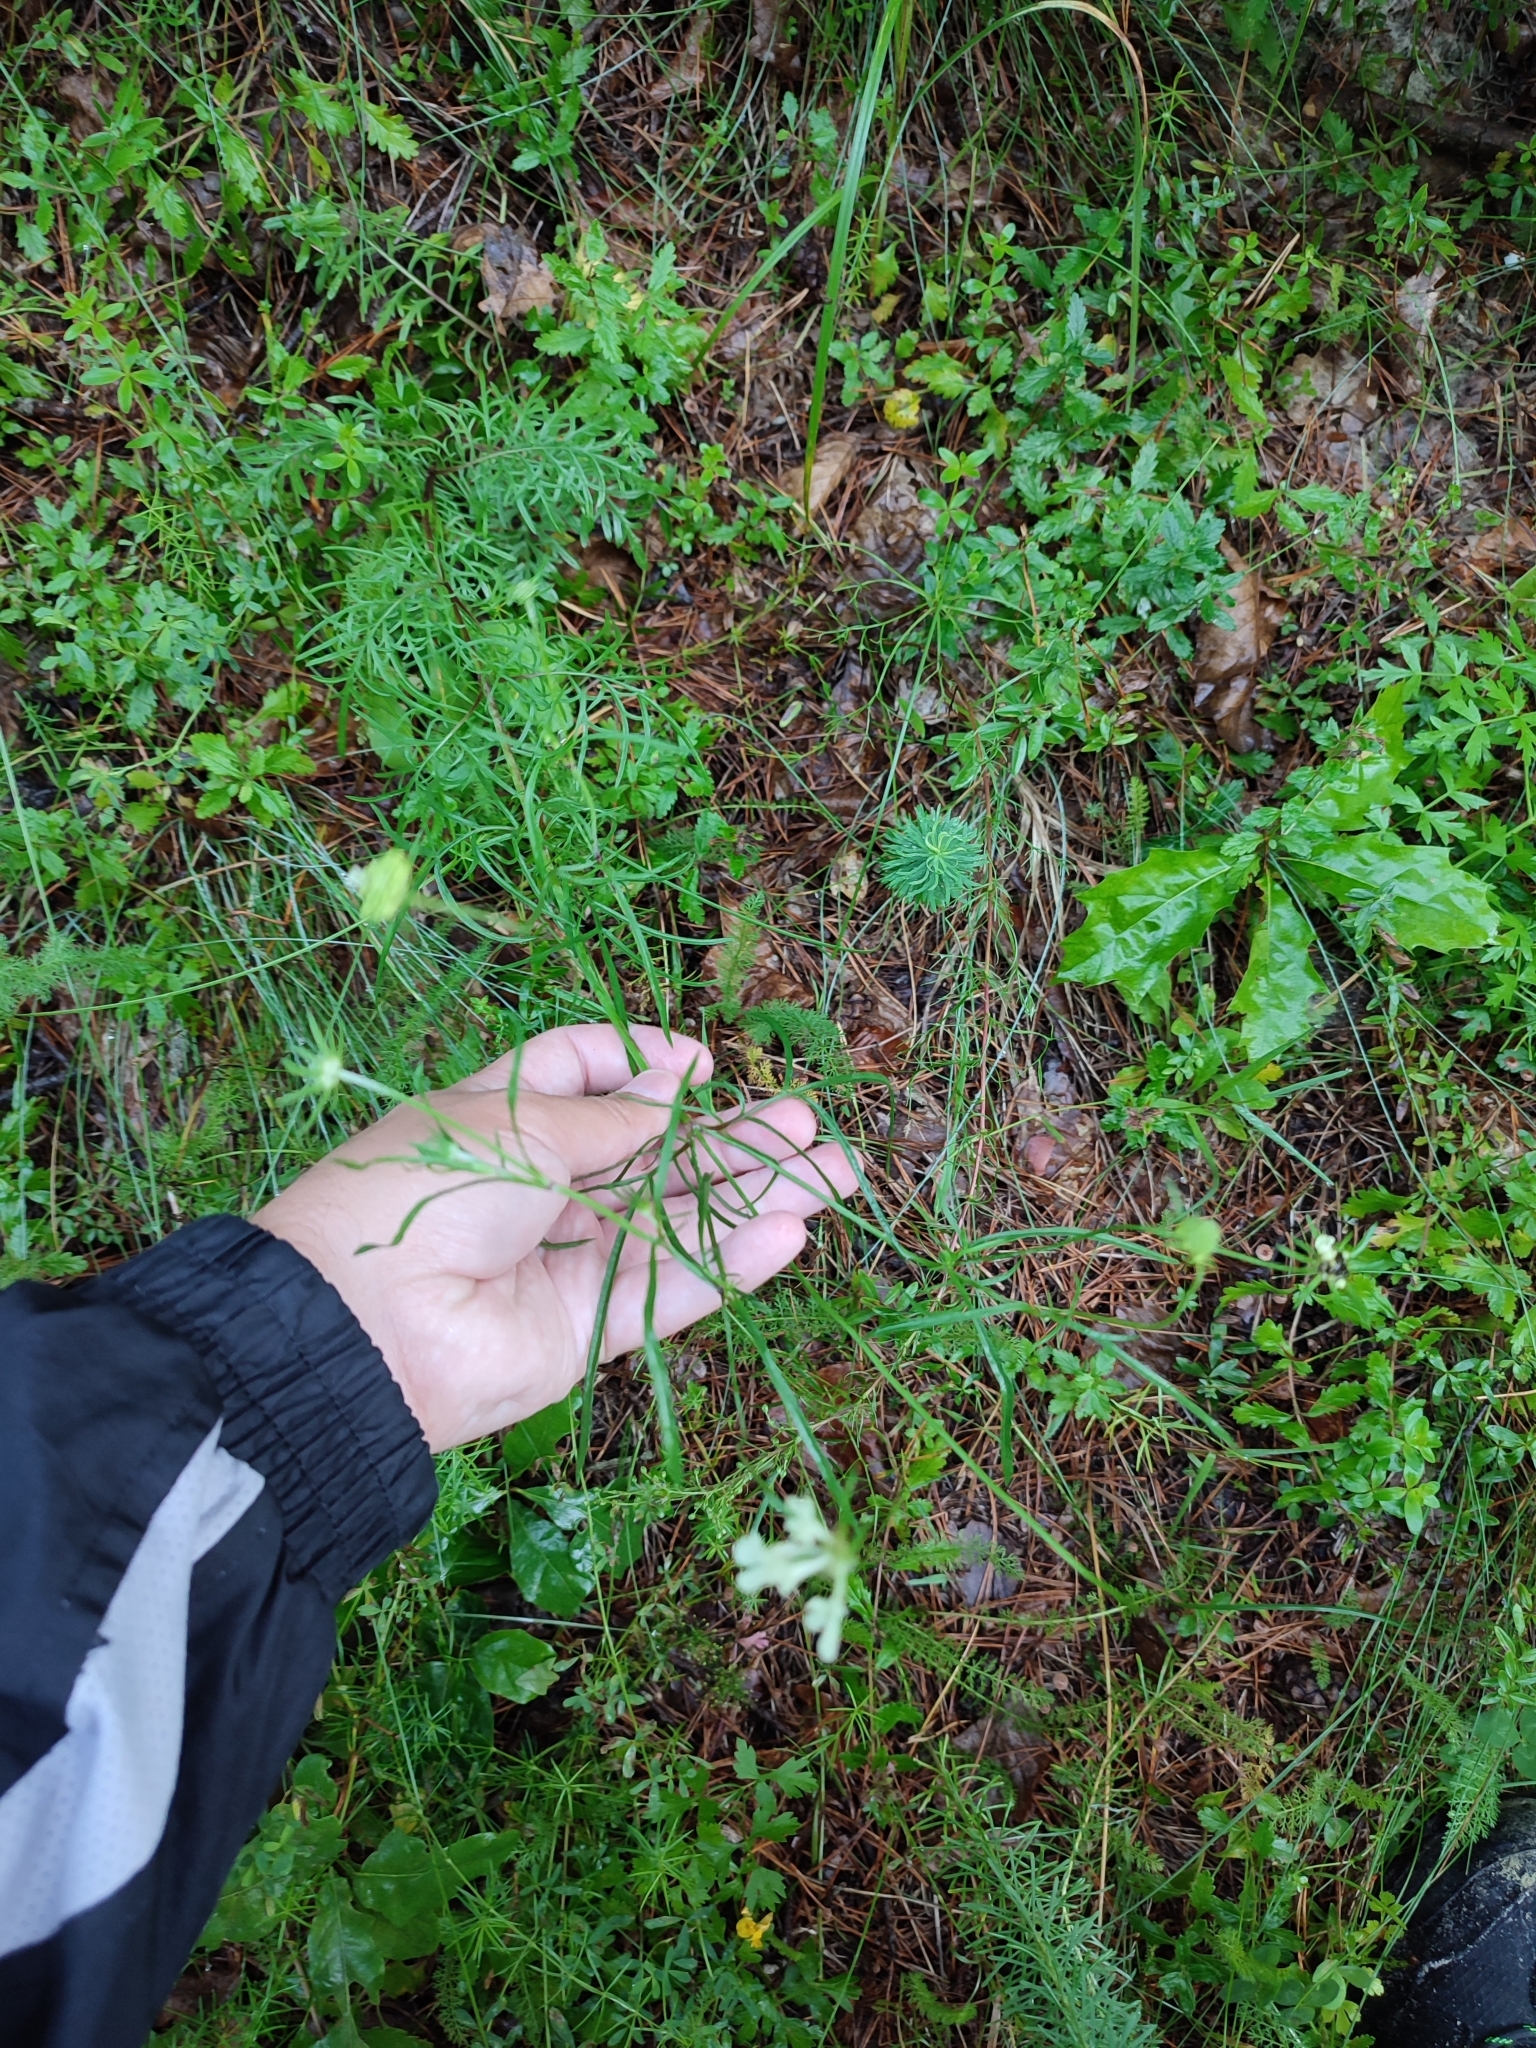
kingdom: Plantae
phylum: Tracheophyta
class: Magnoliopsida
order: Dipsacales
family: Caprifoliaceae
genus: Scabiosa
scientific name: Scabiosa ochroleuca
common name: Cream pincushions
